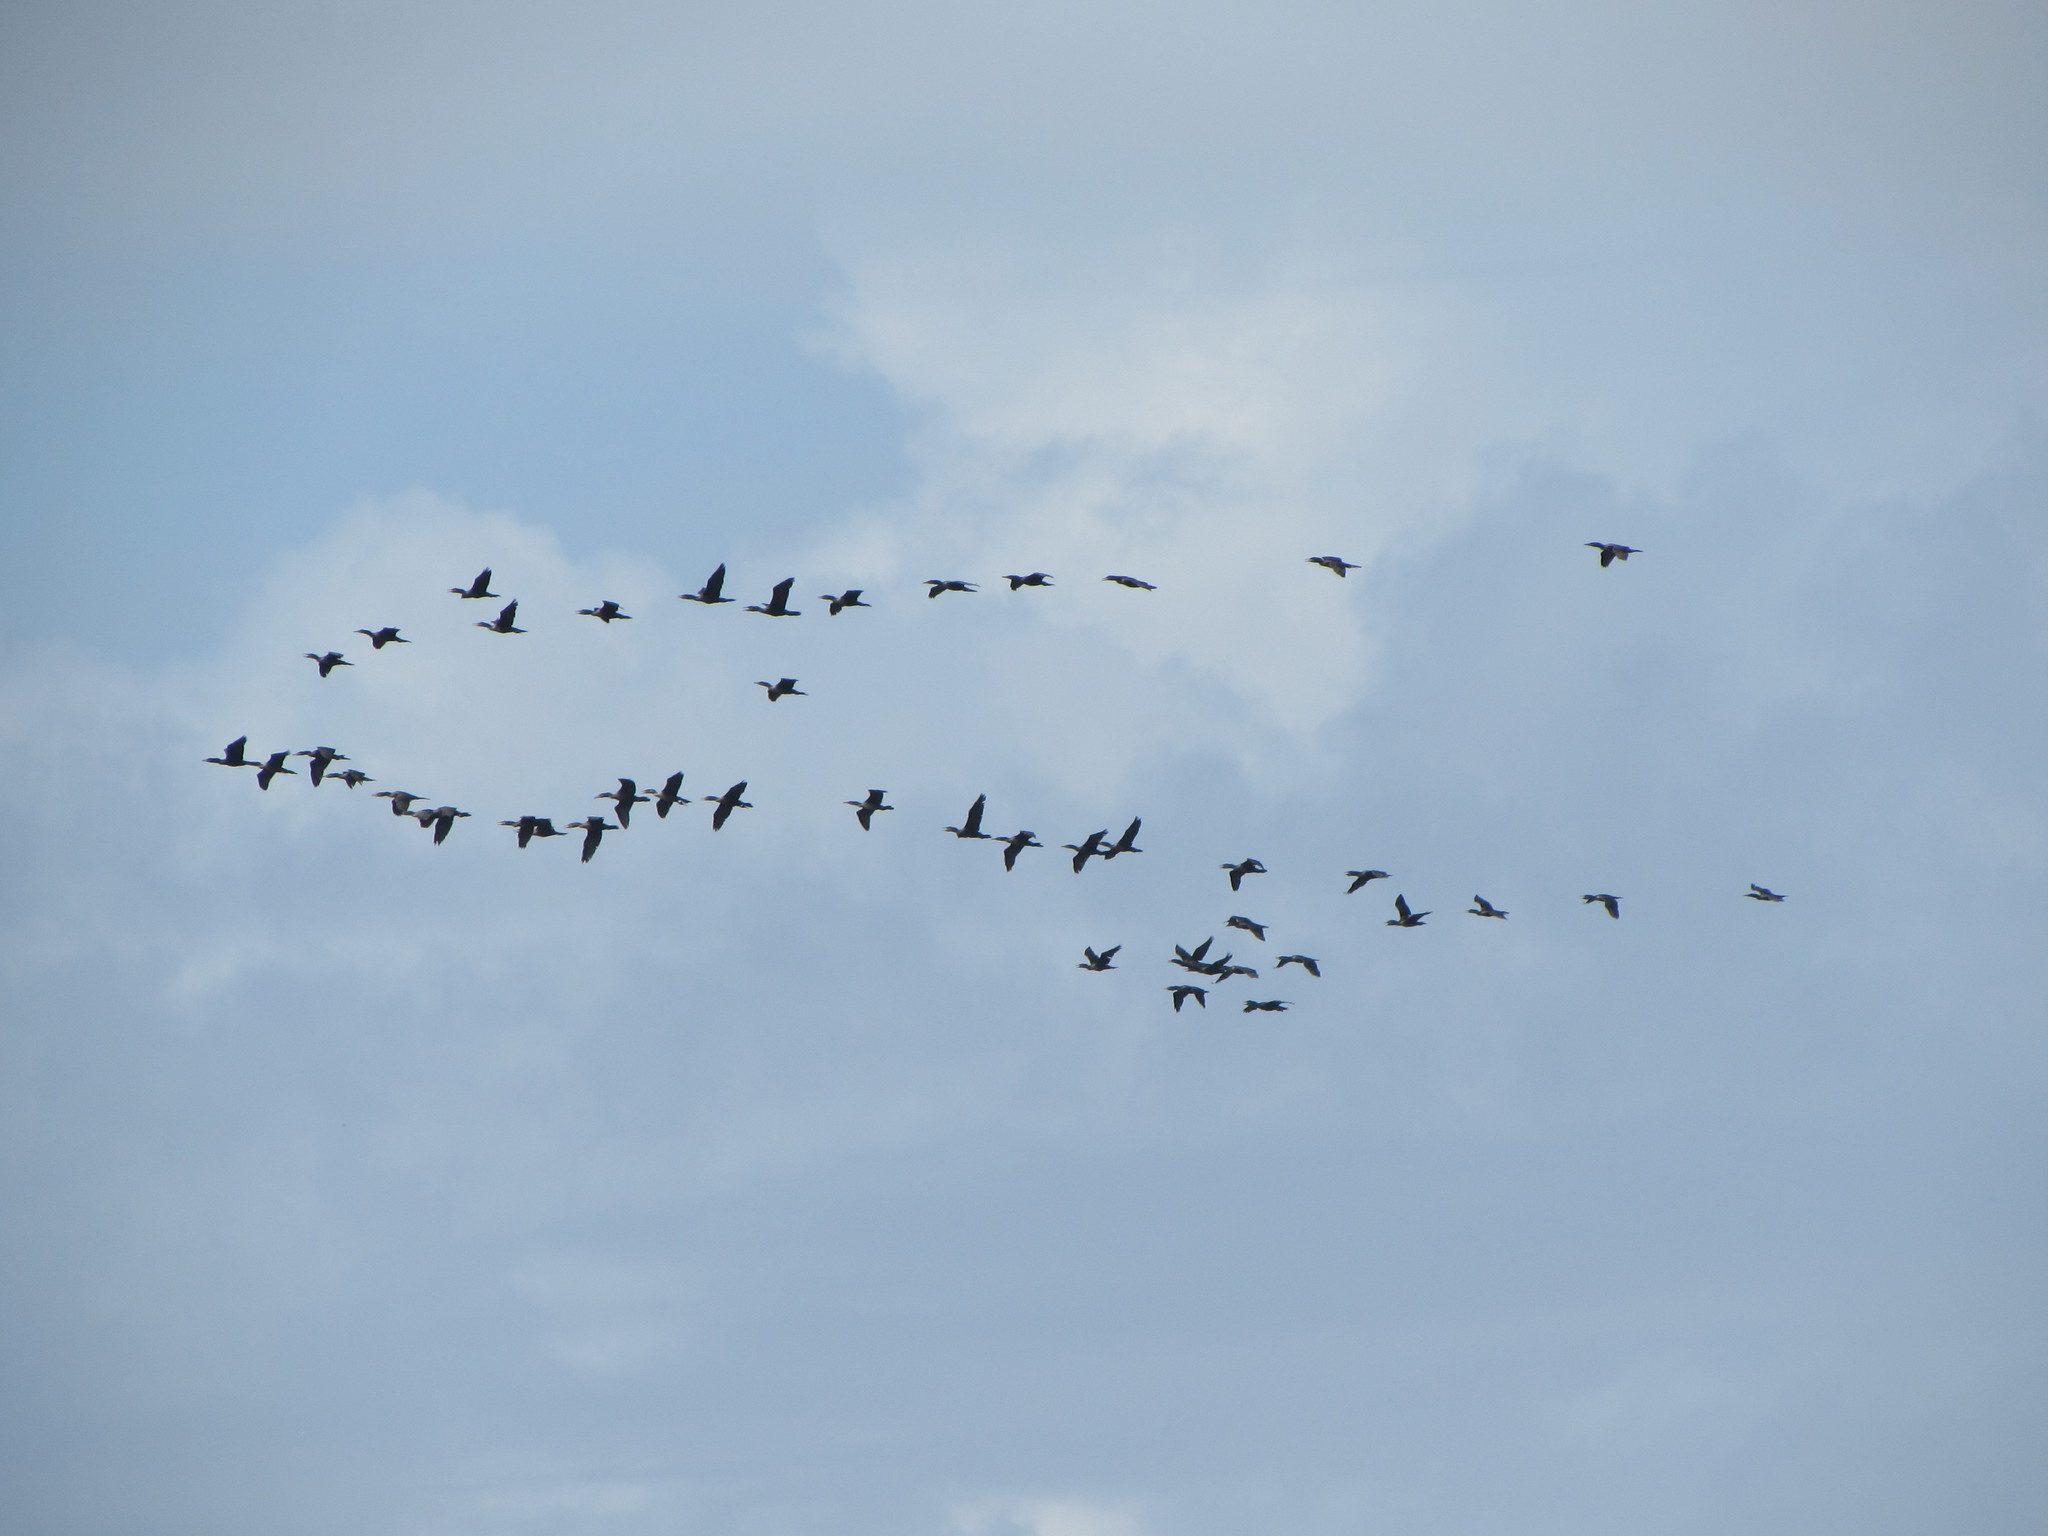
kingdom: Animalia
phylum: Chordata
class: Aves
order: Suliformes
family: Phalacrocoracidae
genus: Phalacrocorax
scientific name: Phalacrocorax auritus
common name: Double-crested cormorant
